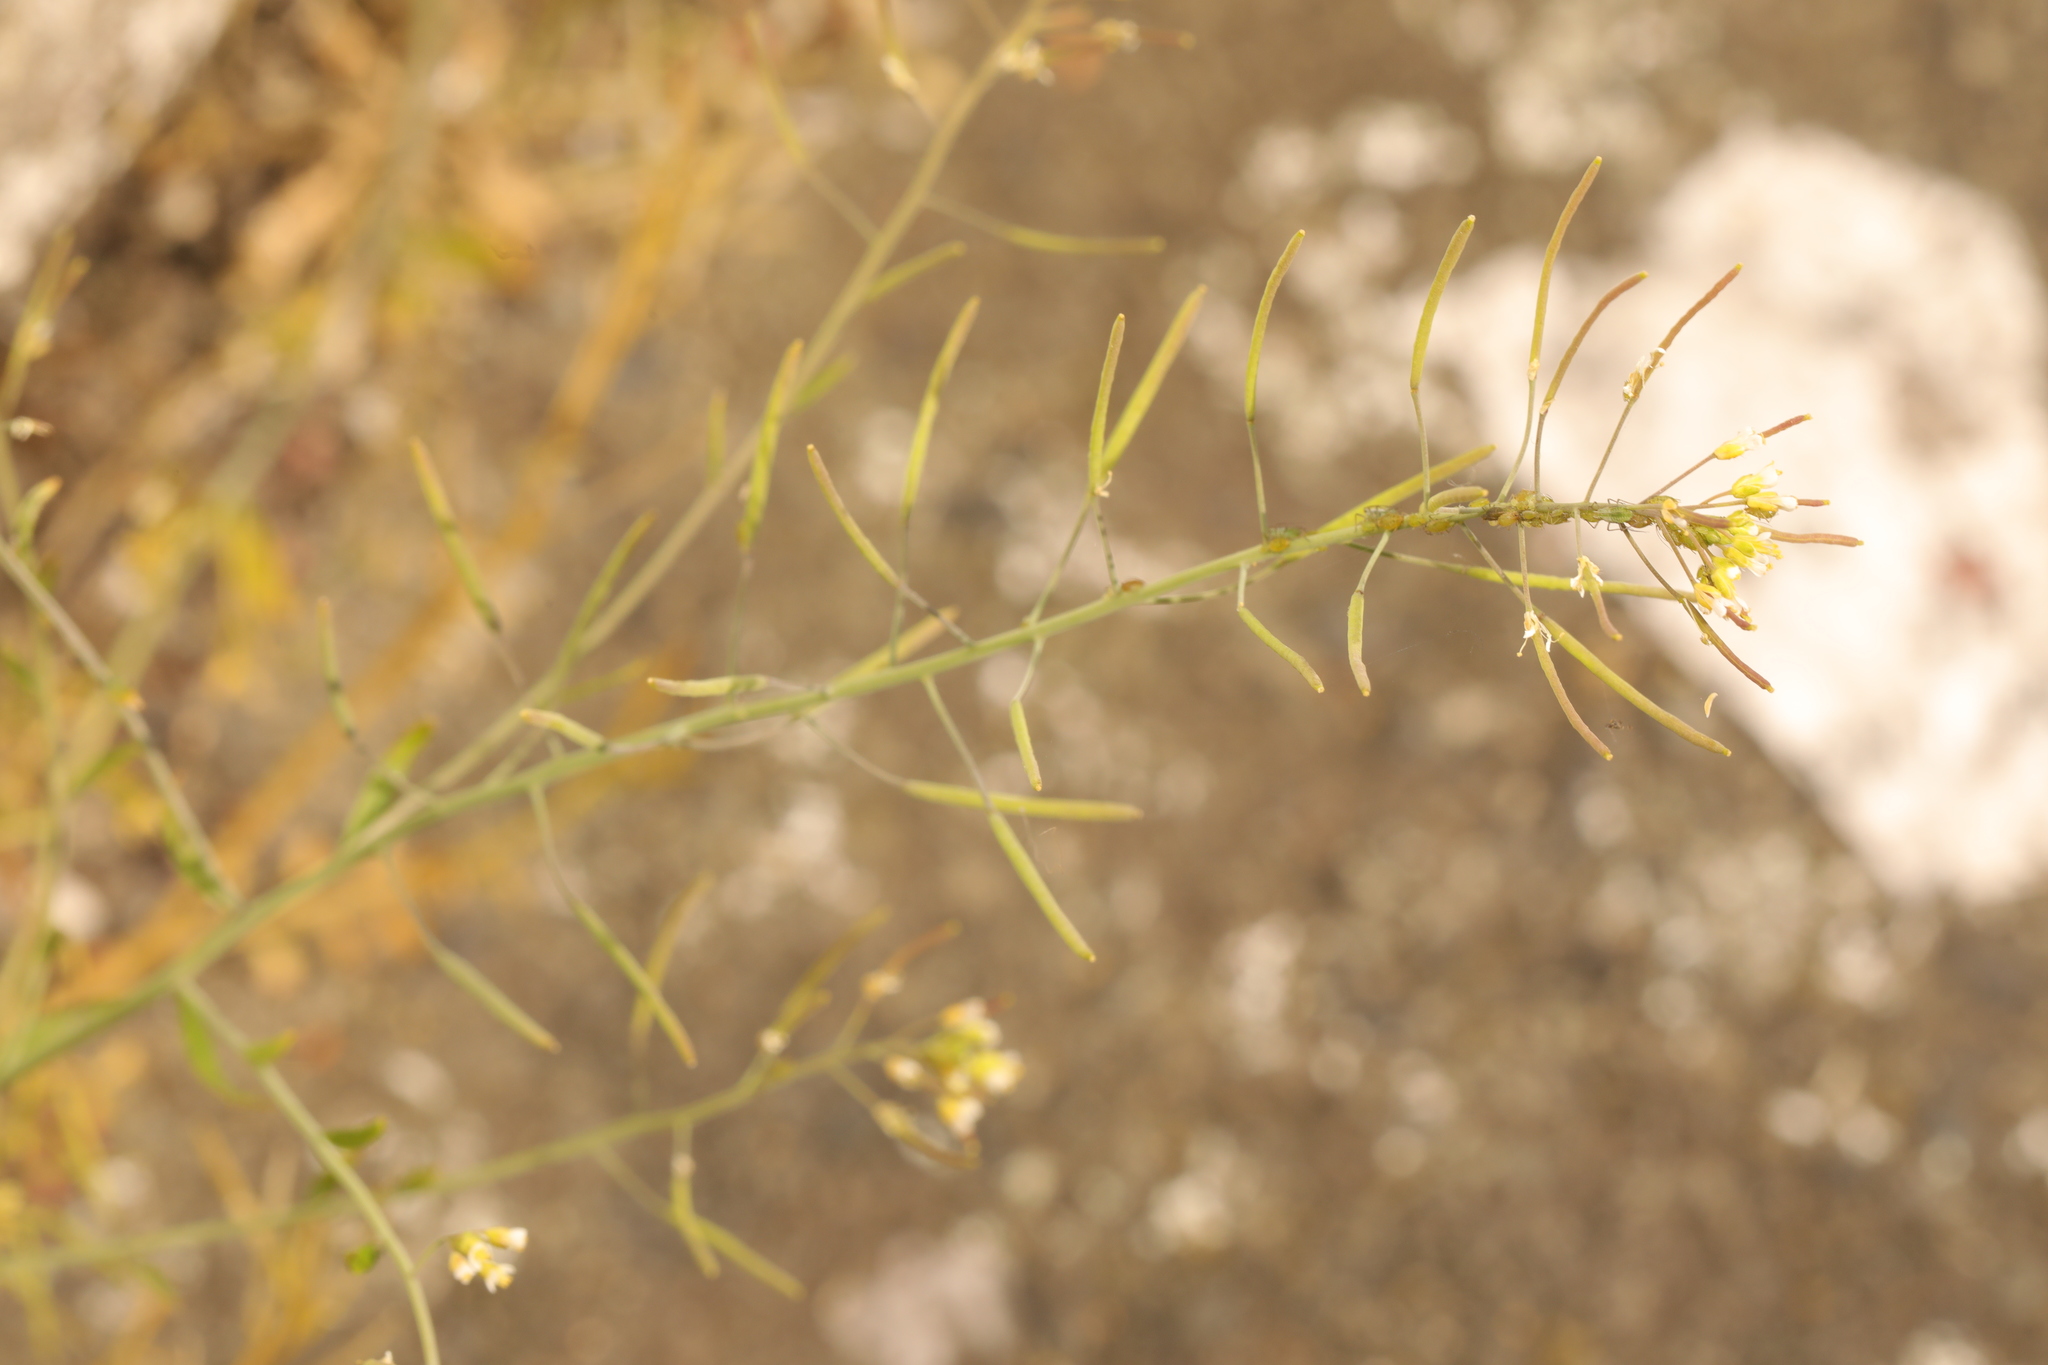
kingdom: Plantae
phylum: Tracheophyta
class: Magnoliopsida
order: Brassicales
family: Brassicaceae
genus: Arabidopsis
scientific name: Arabidopsis thaliana
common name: Thale cress
